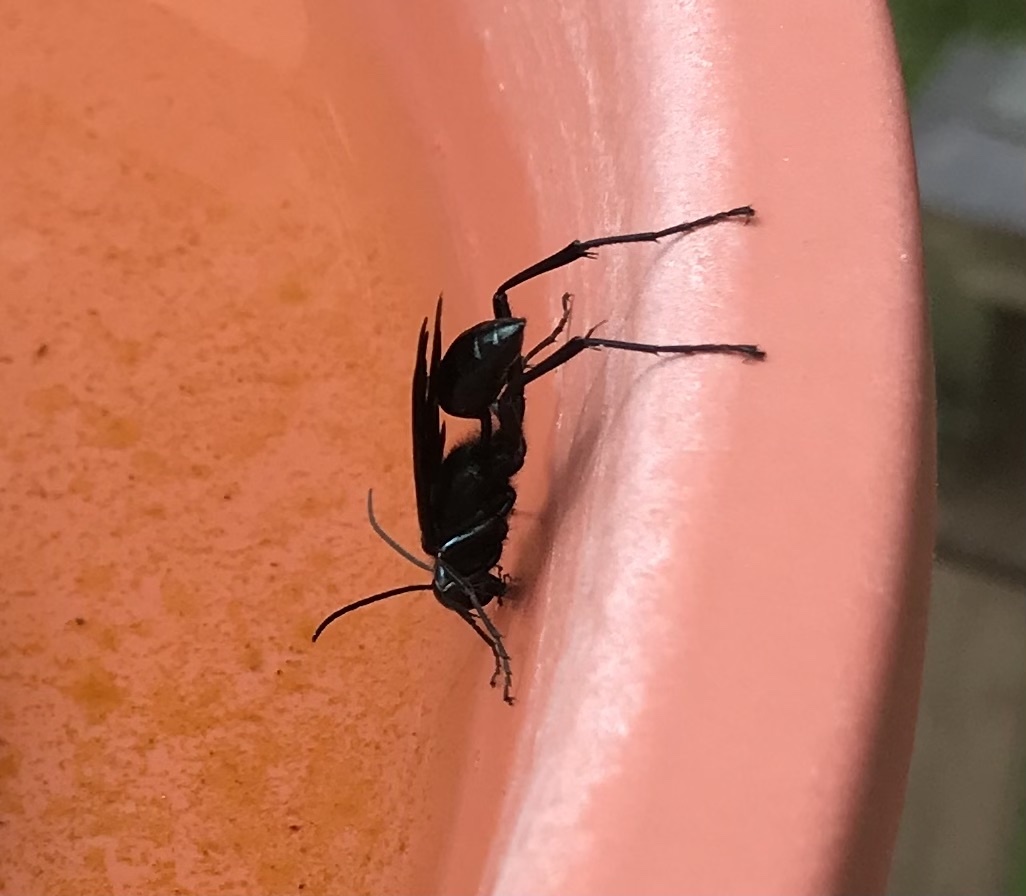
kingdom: Animalia
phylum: Arthropoda
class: Insecta
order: Hymenoptera
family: Sphecidae
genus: Chalybion
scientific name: Chalybion californicum
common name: Mud dauber
